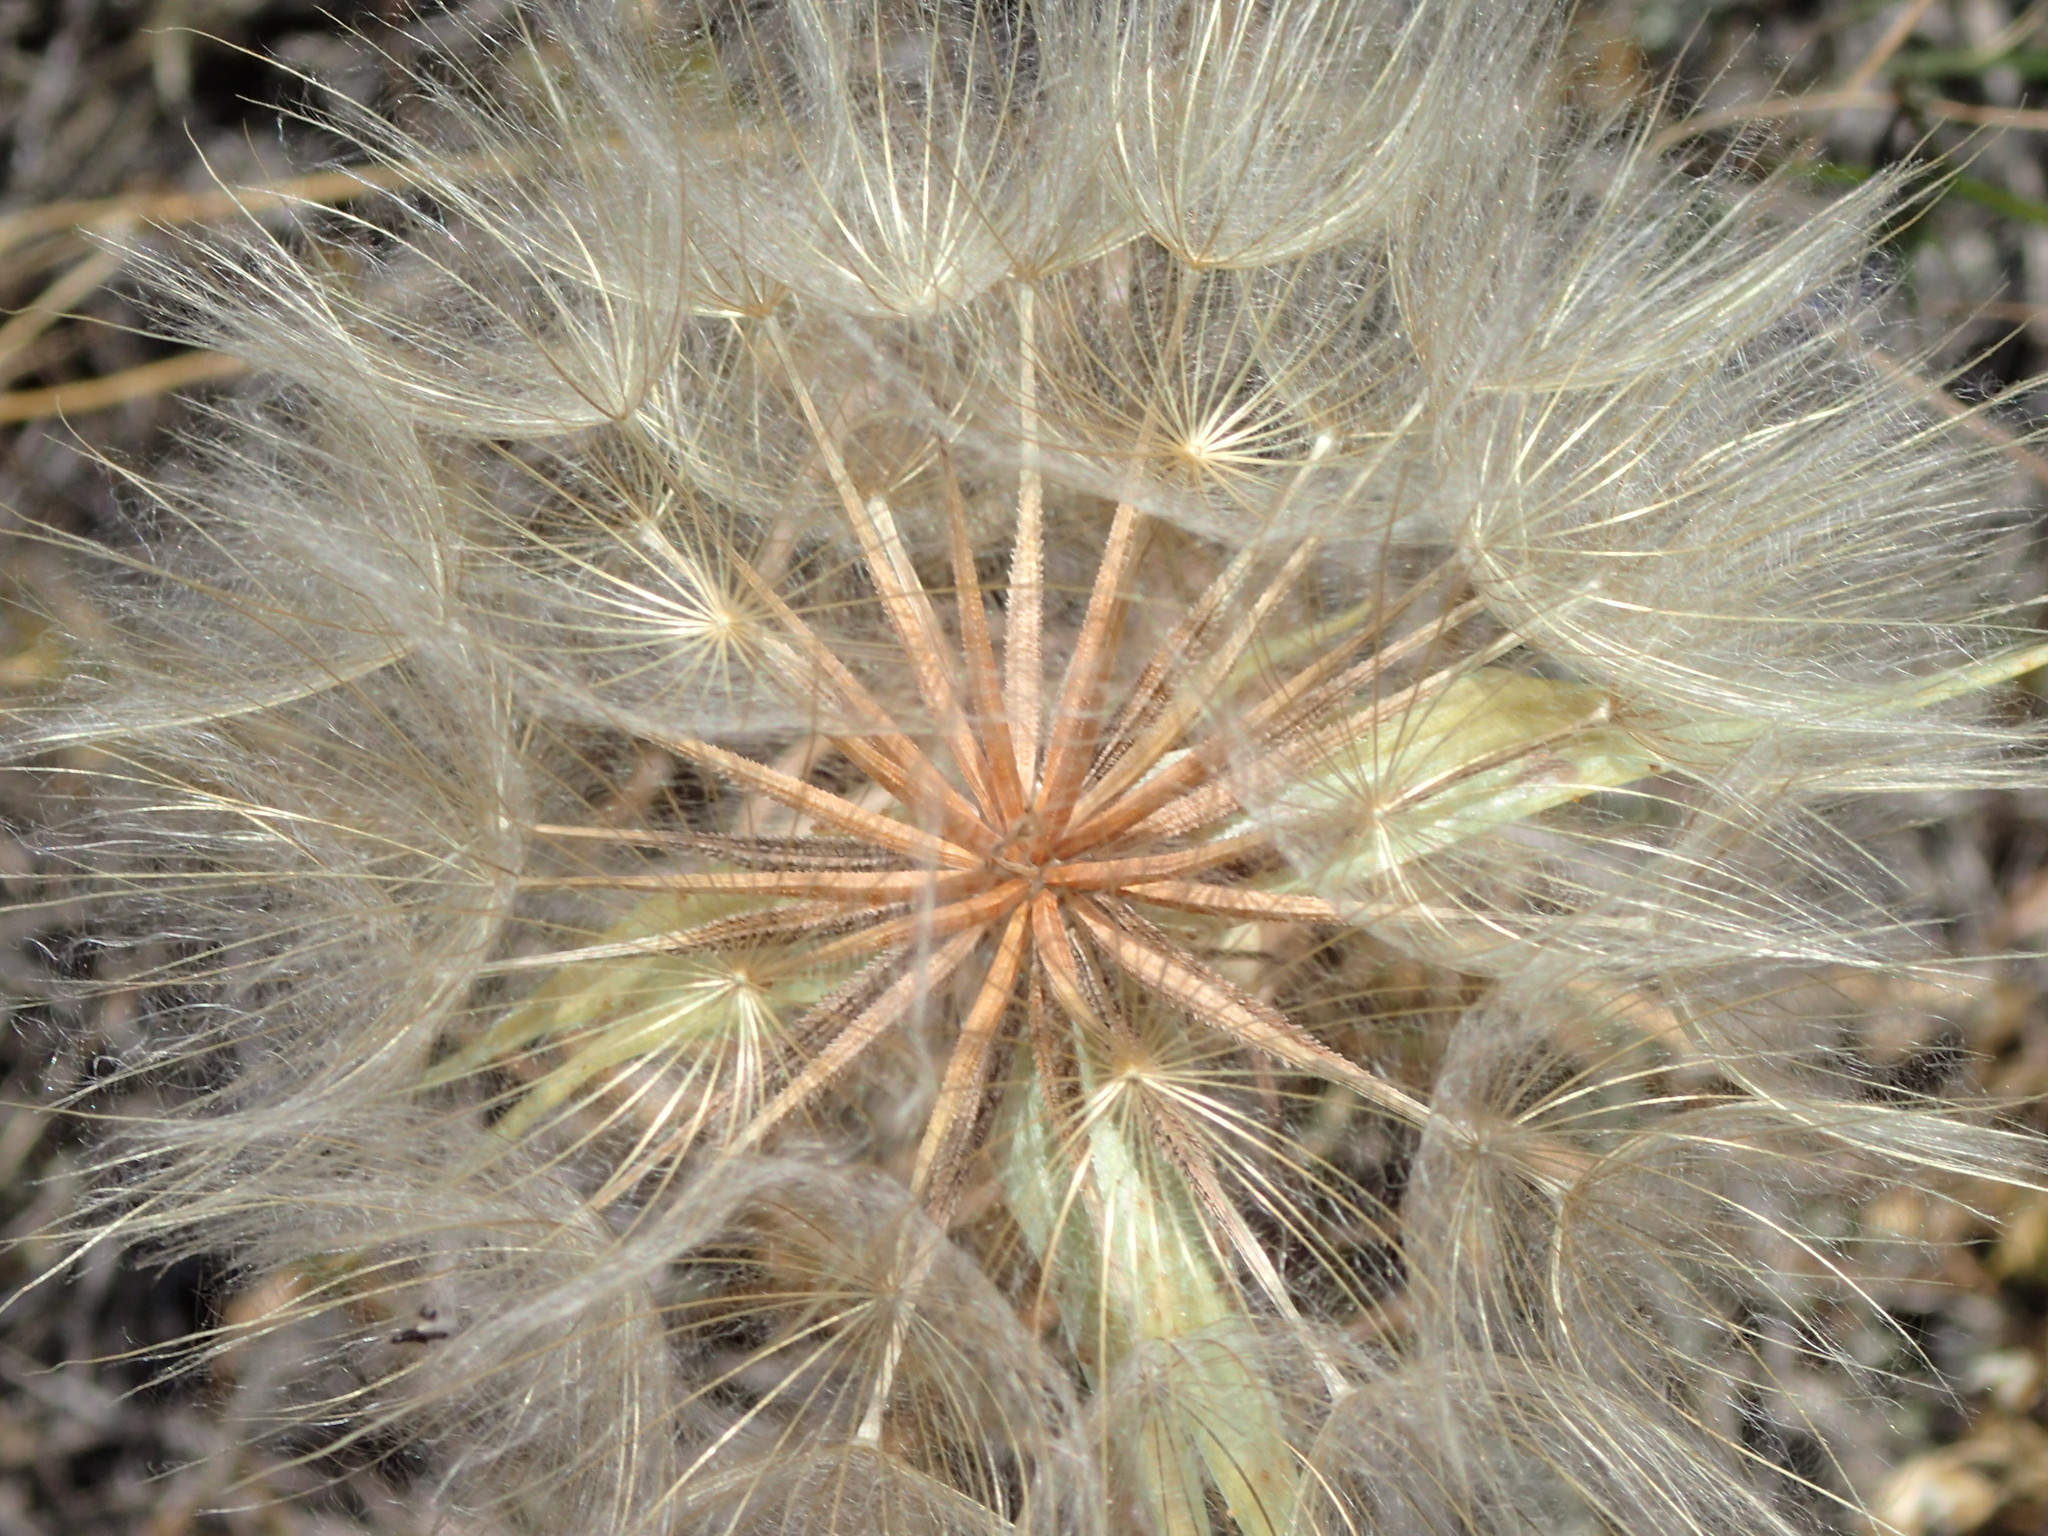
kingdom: Plantae
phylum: Tracheophyta
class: Magnoliopsida
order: Asterales
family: Asteraceae
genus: Tragopogon
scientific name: Tragopogon dubius
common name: Yellow salsify
